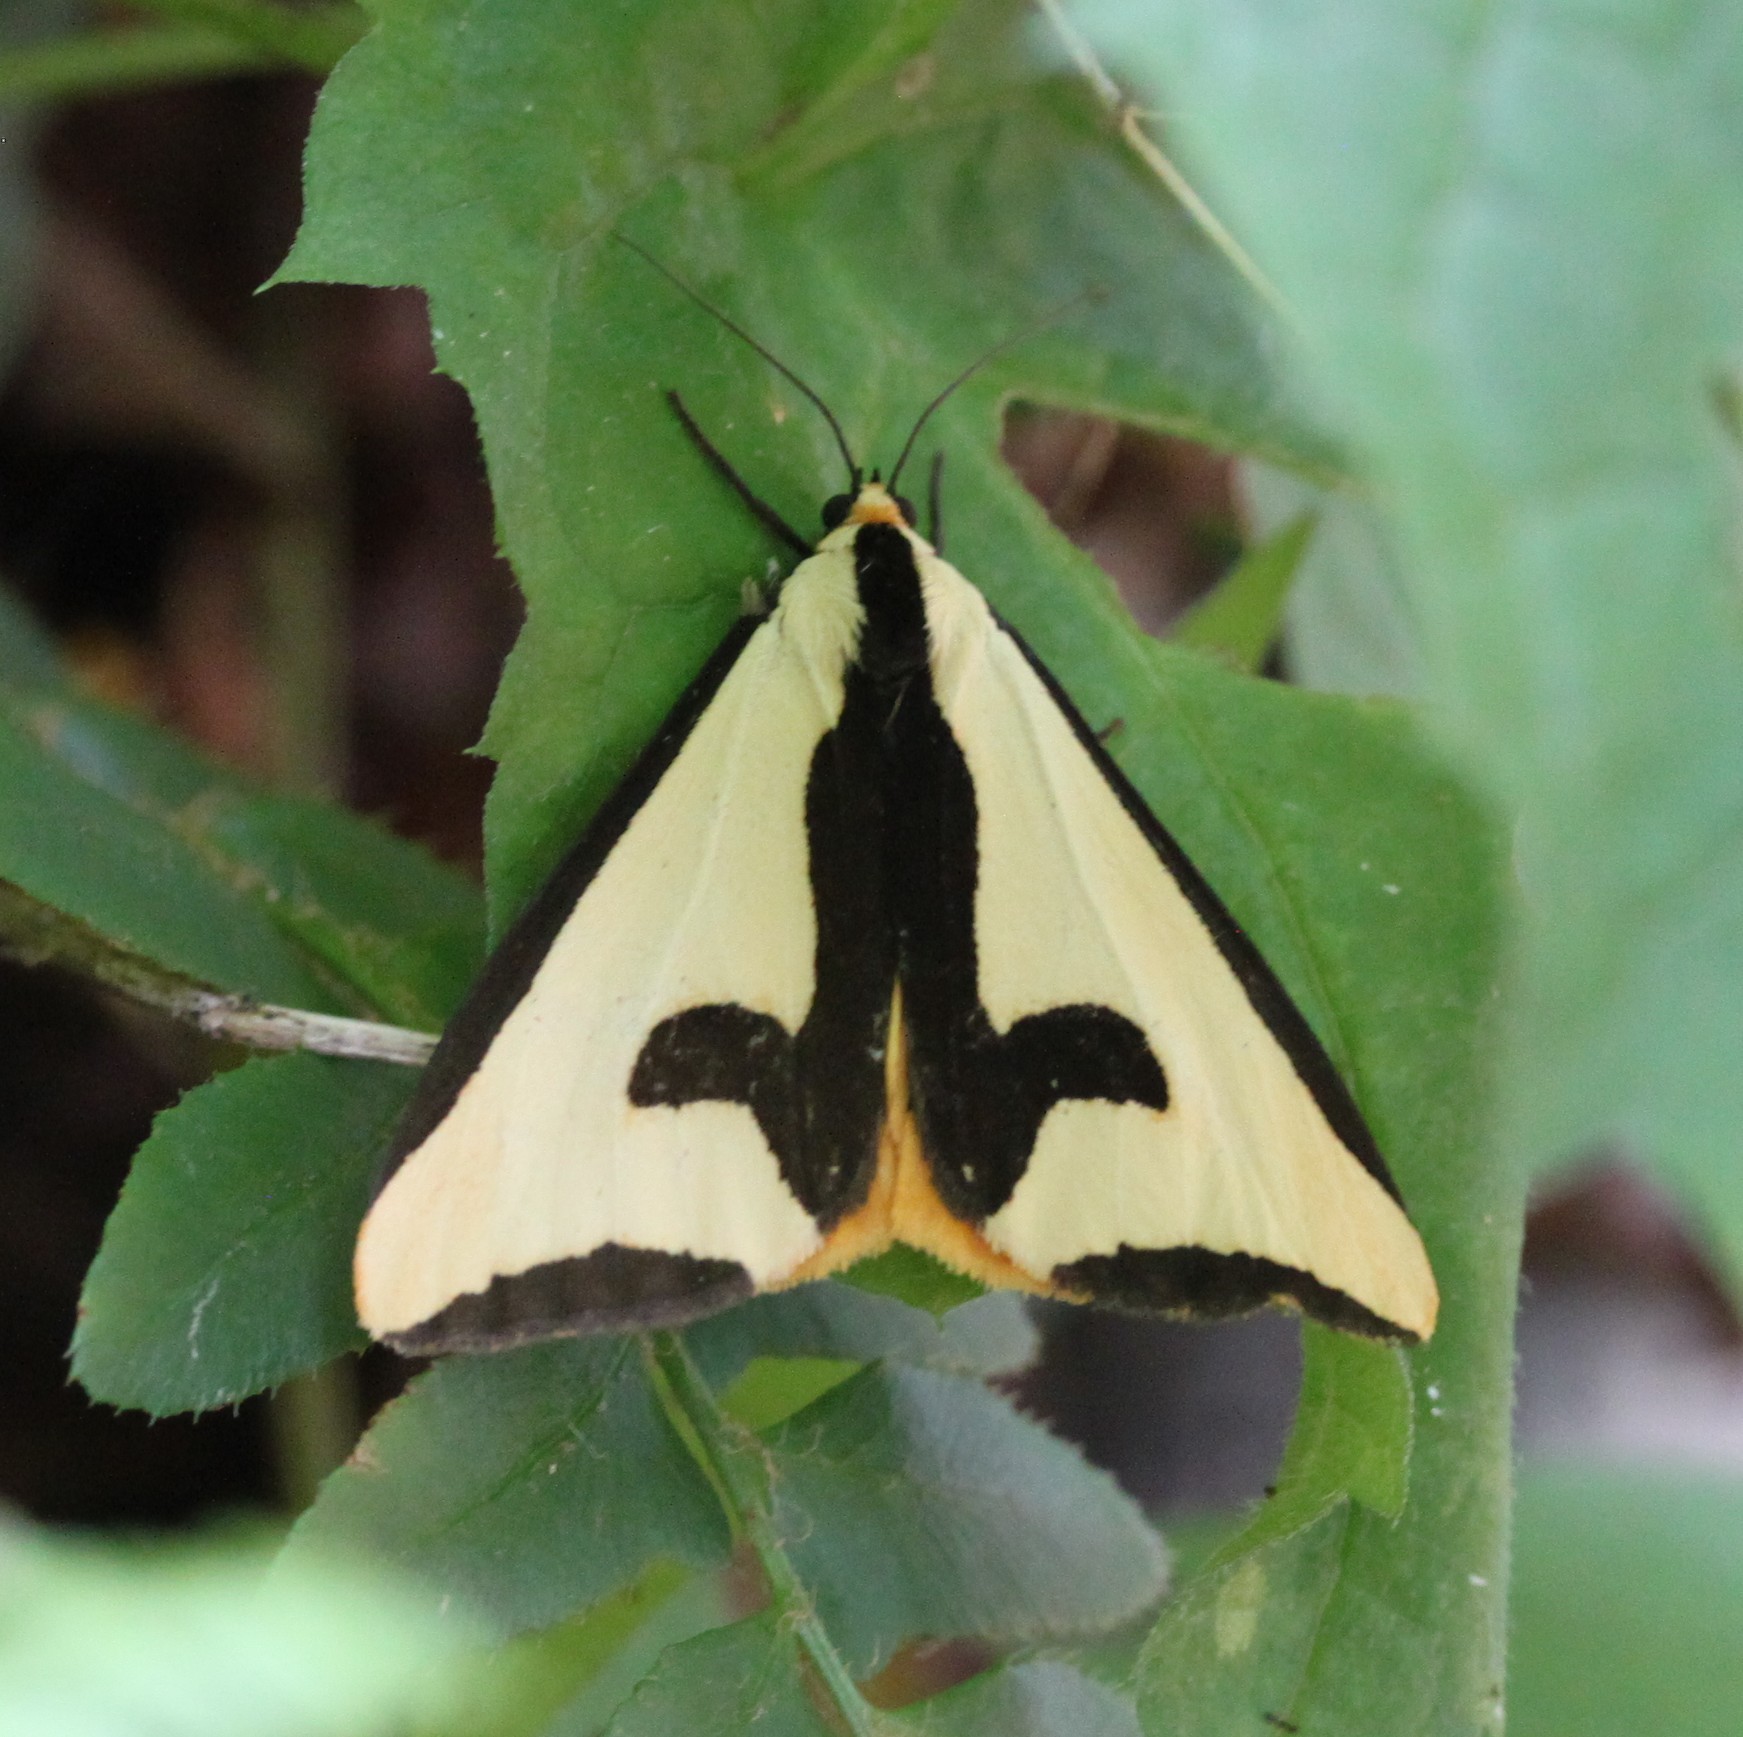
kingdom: Animalia
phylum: Arthropoda
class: Insecta
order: Lepidoptera
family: Erebidae
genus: Haploa
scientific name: Haploa clymene
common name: Clymene moth
